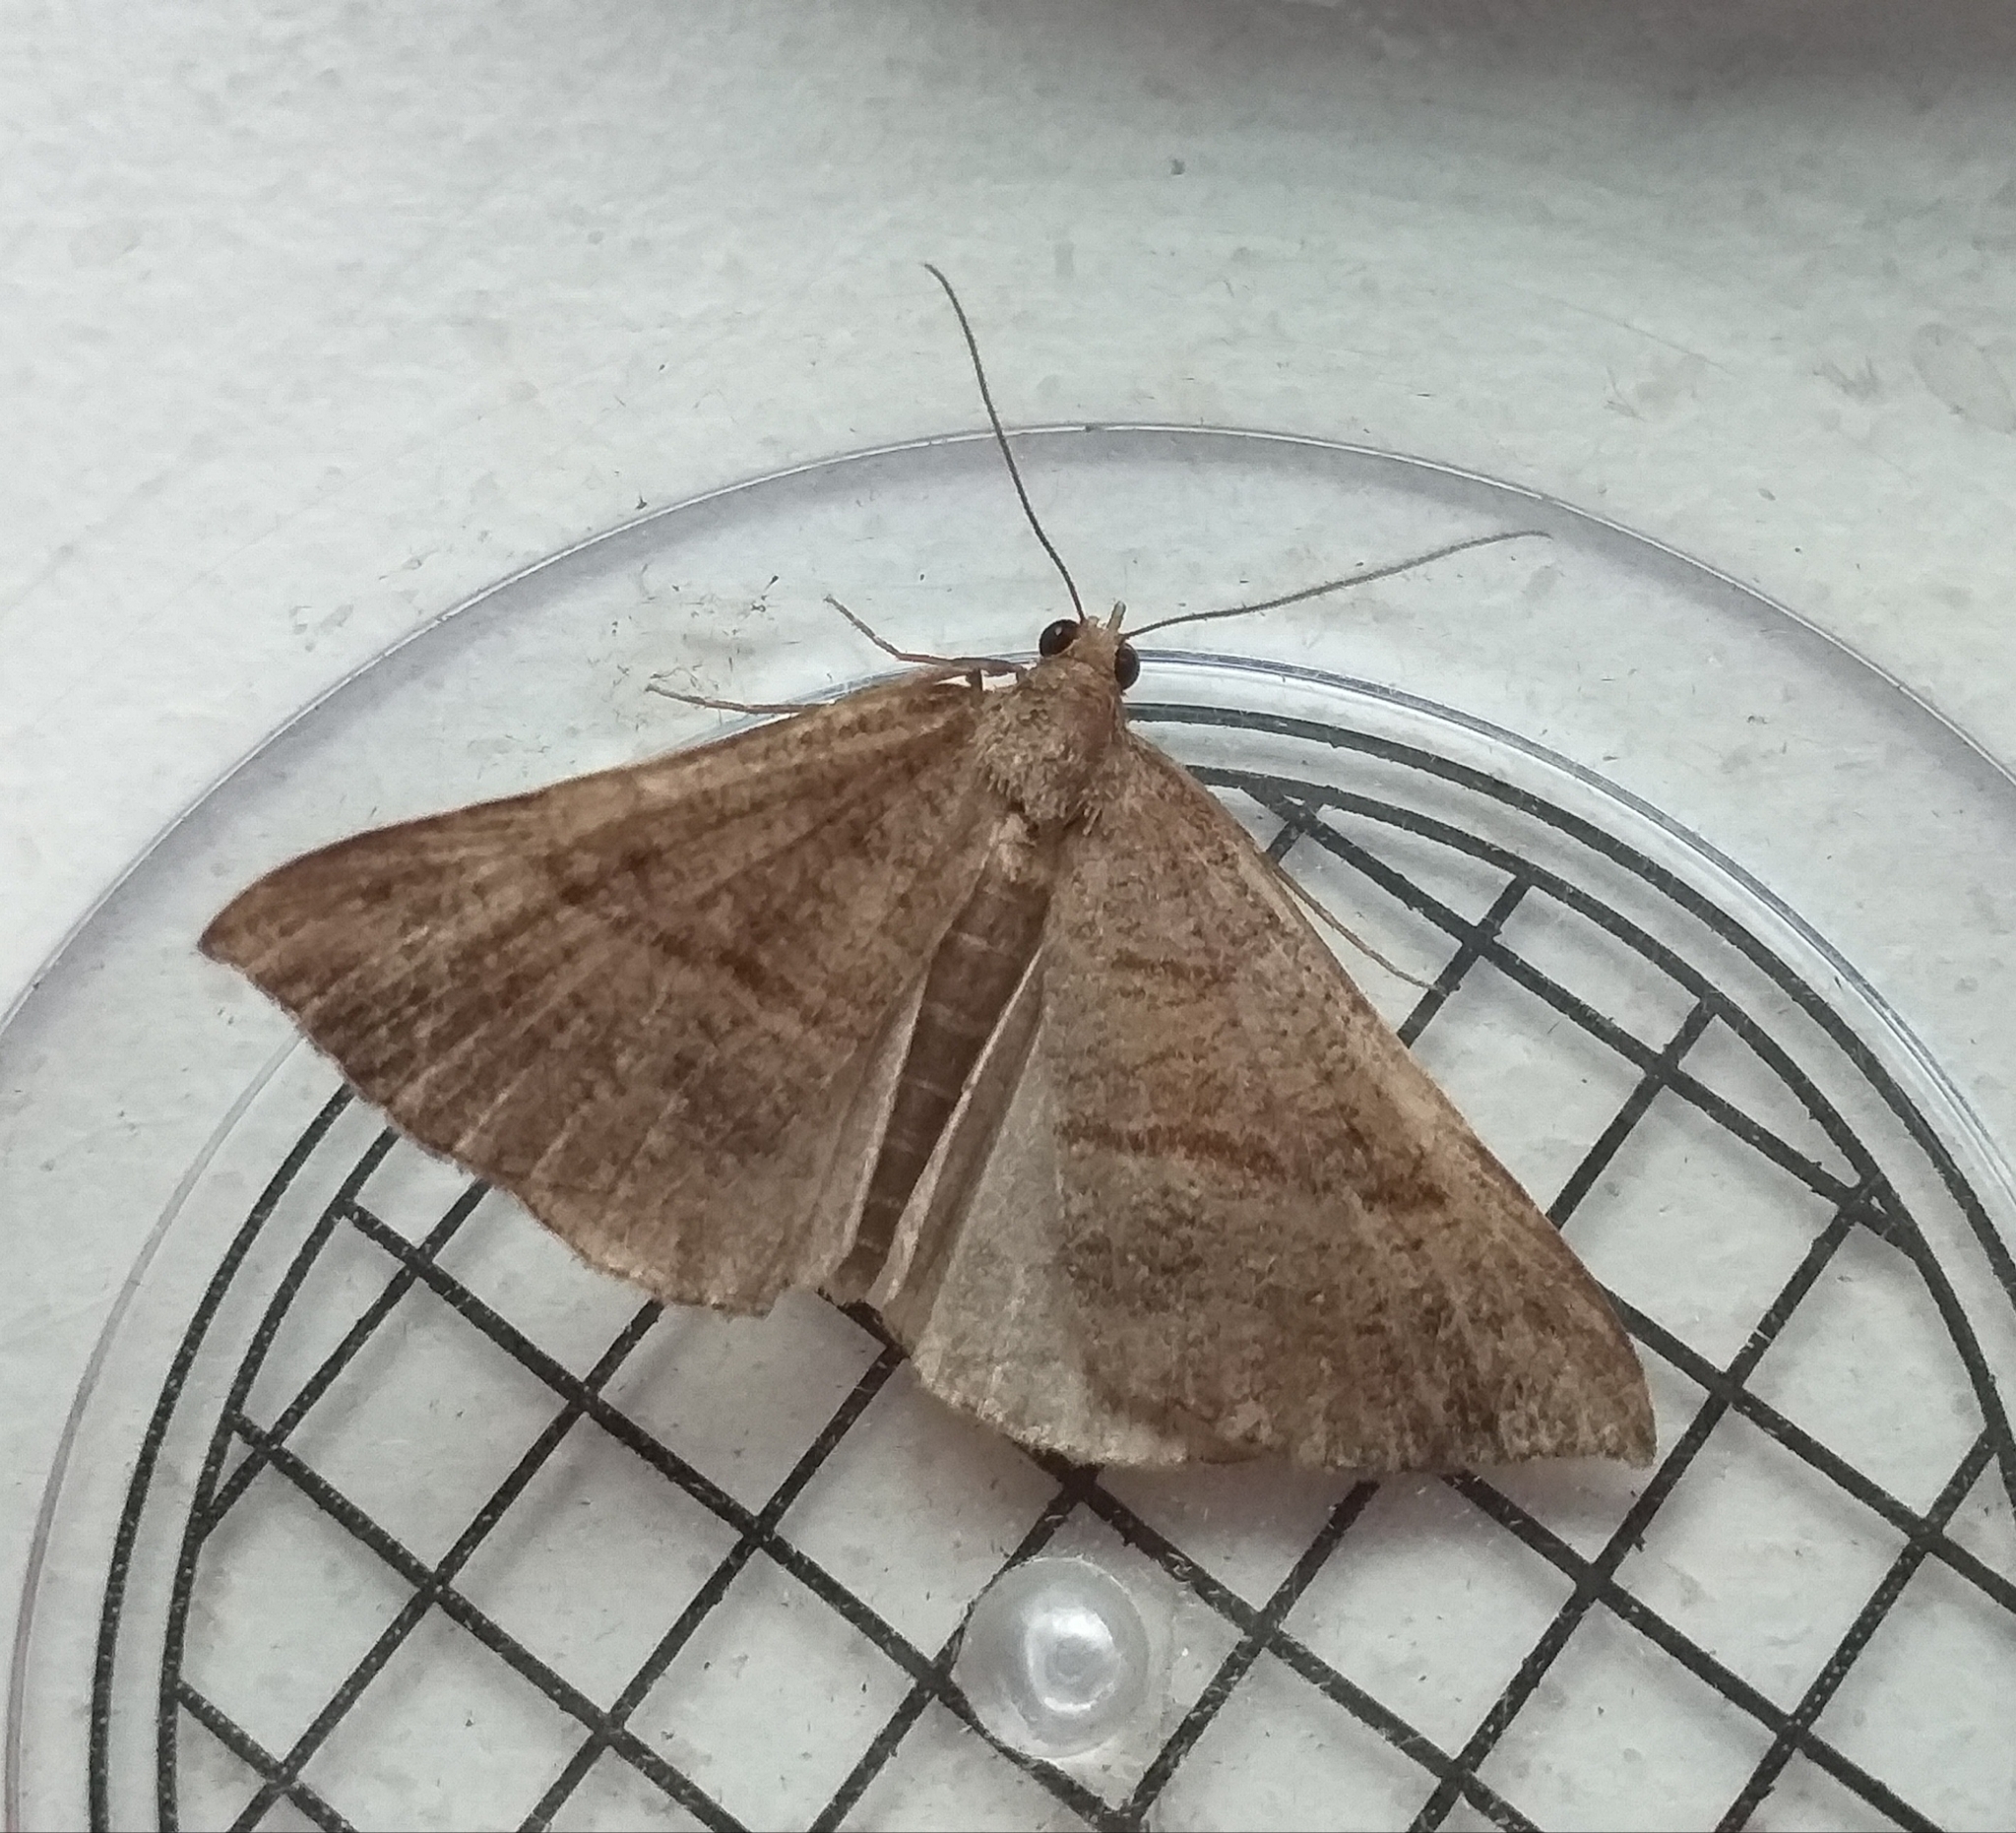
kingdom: Animalia
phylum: Arthropoda
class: Insecta
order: Lepidoptera
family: Erebidae
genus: Hypena
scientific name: Hypena proboscidalis
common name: Snout
